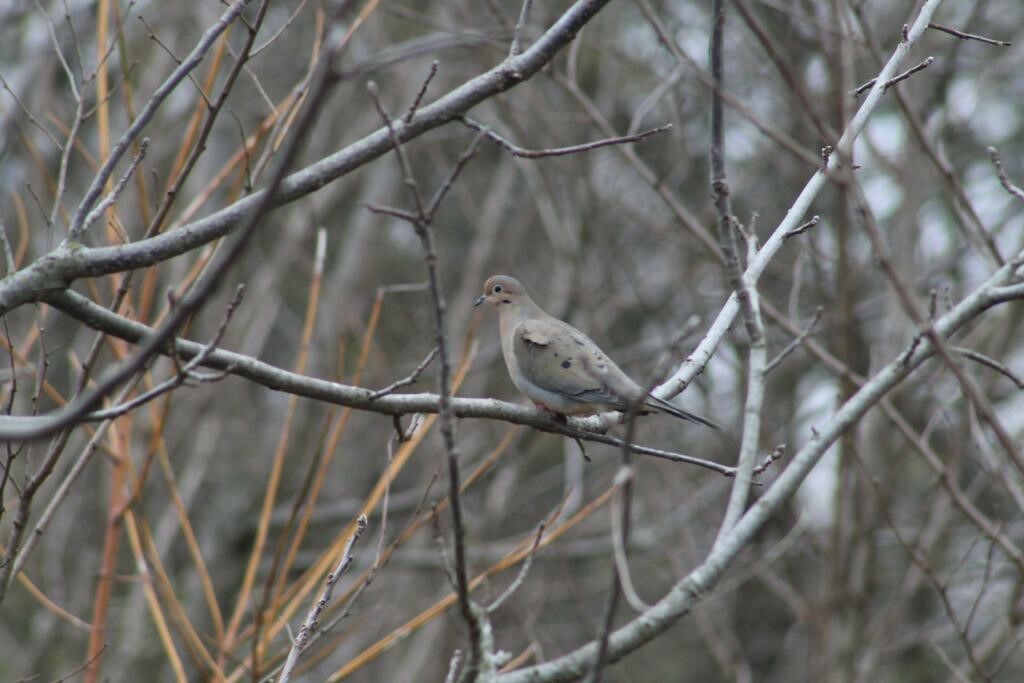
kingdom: Animalia
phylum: Chordata
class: Aves
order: Columbiformes
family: Columbidae
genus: Zenaida
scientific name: Zenaida macroura
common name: Mourning dove
